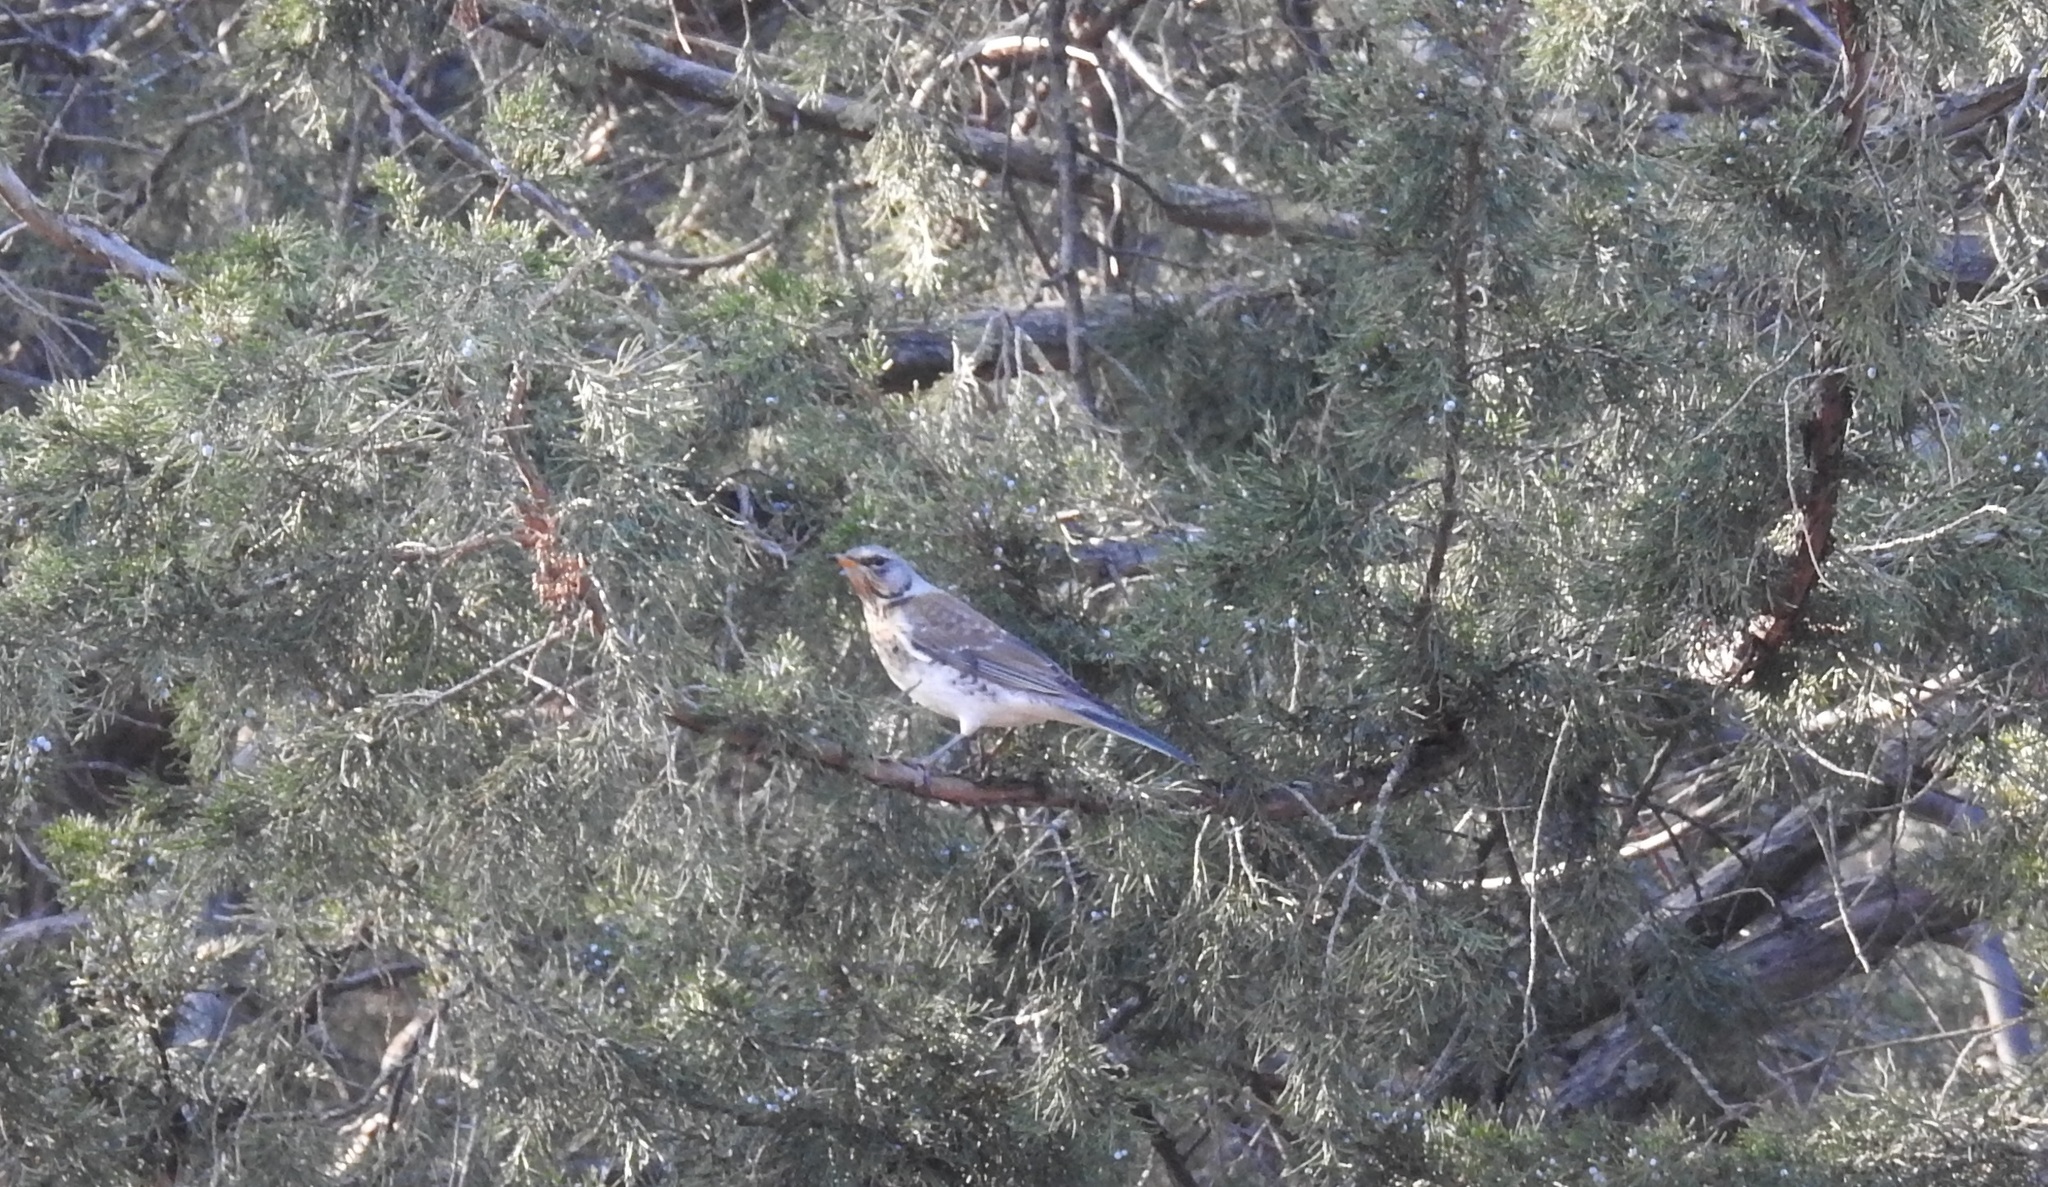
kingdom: Animalia
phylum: Chordata
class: Aves
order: Passeriformes
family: Turdidae
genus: Turdus
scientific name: Turdus pilaris
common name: Fieldfare
